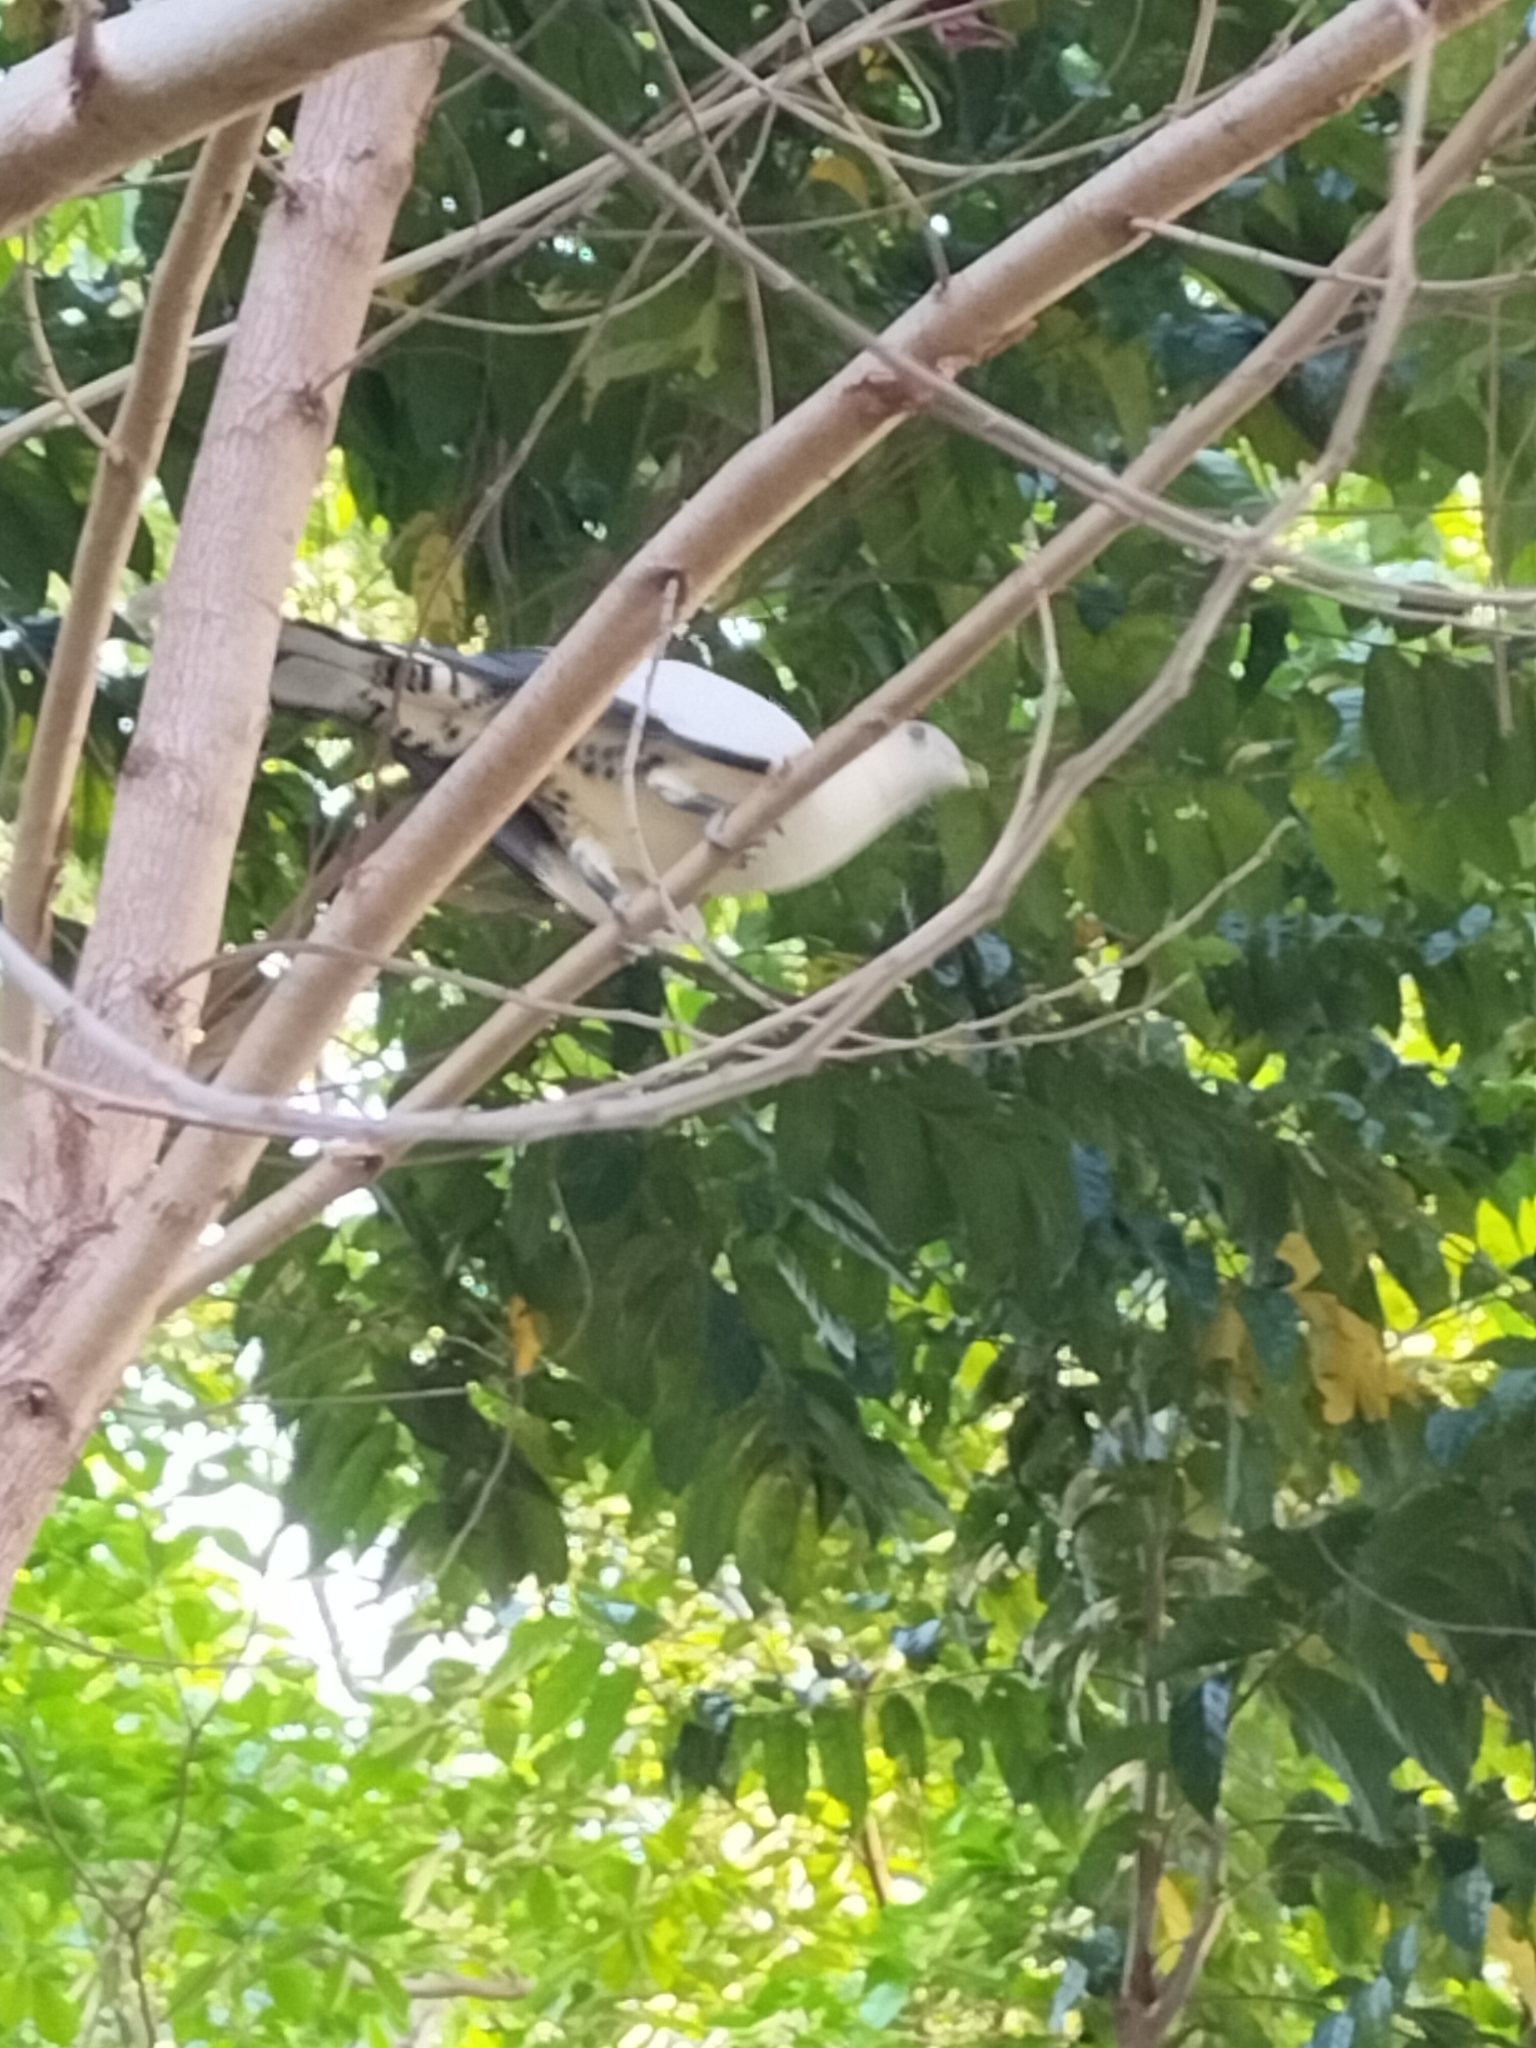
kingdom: Animalia
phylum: Chordata
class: Aves
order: Columbiformes
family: Columbidae
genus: Ducula
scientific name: Ducula spilorrhoa
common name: Torresian imperial pigeon
